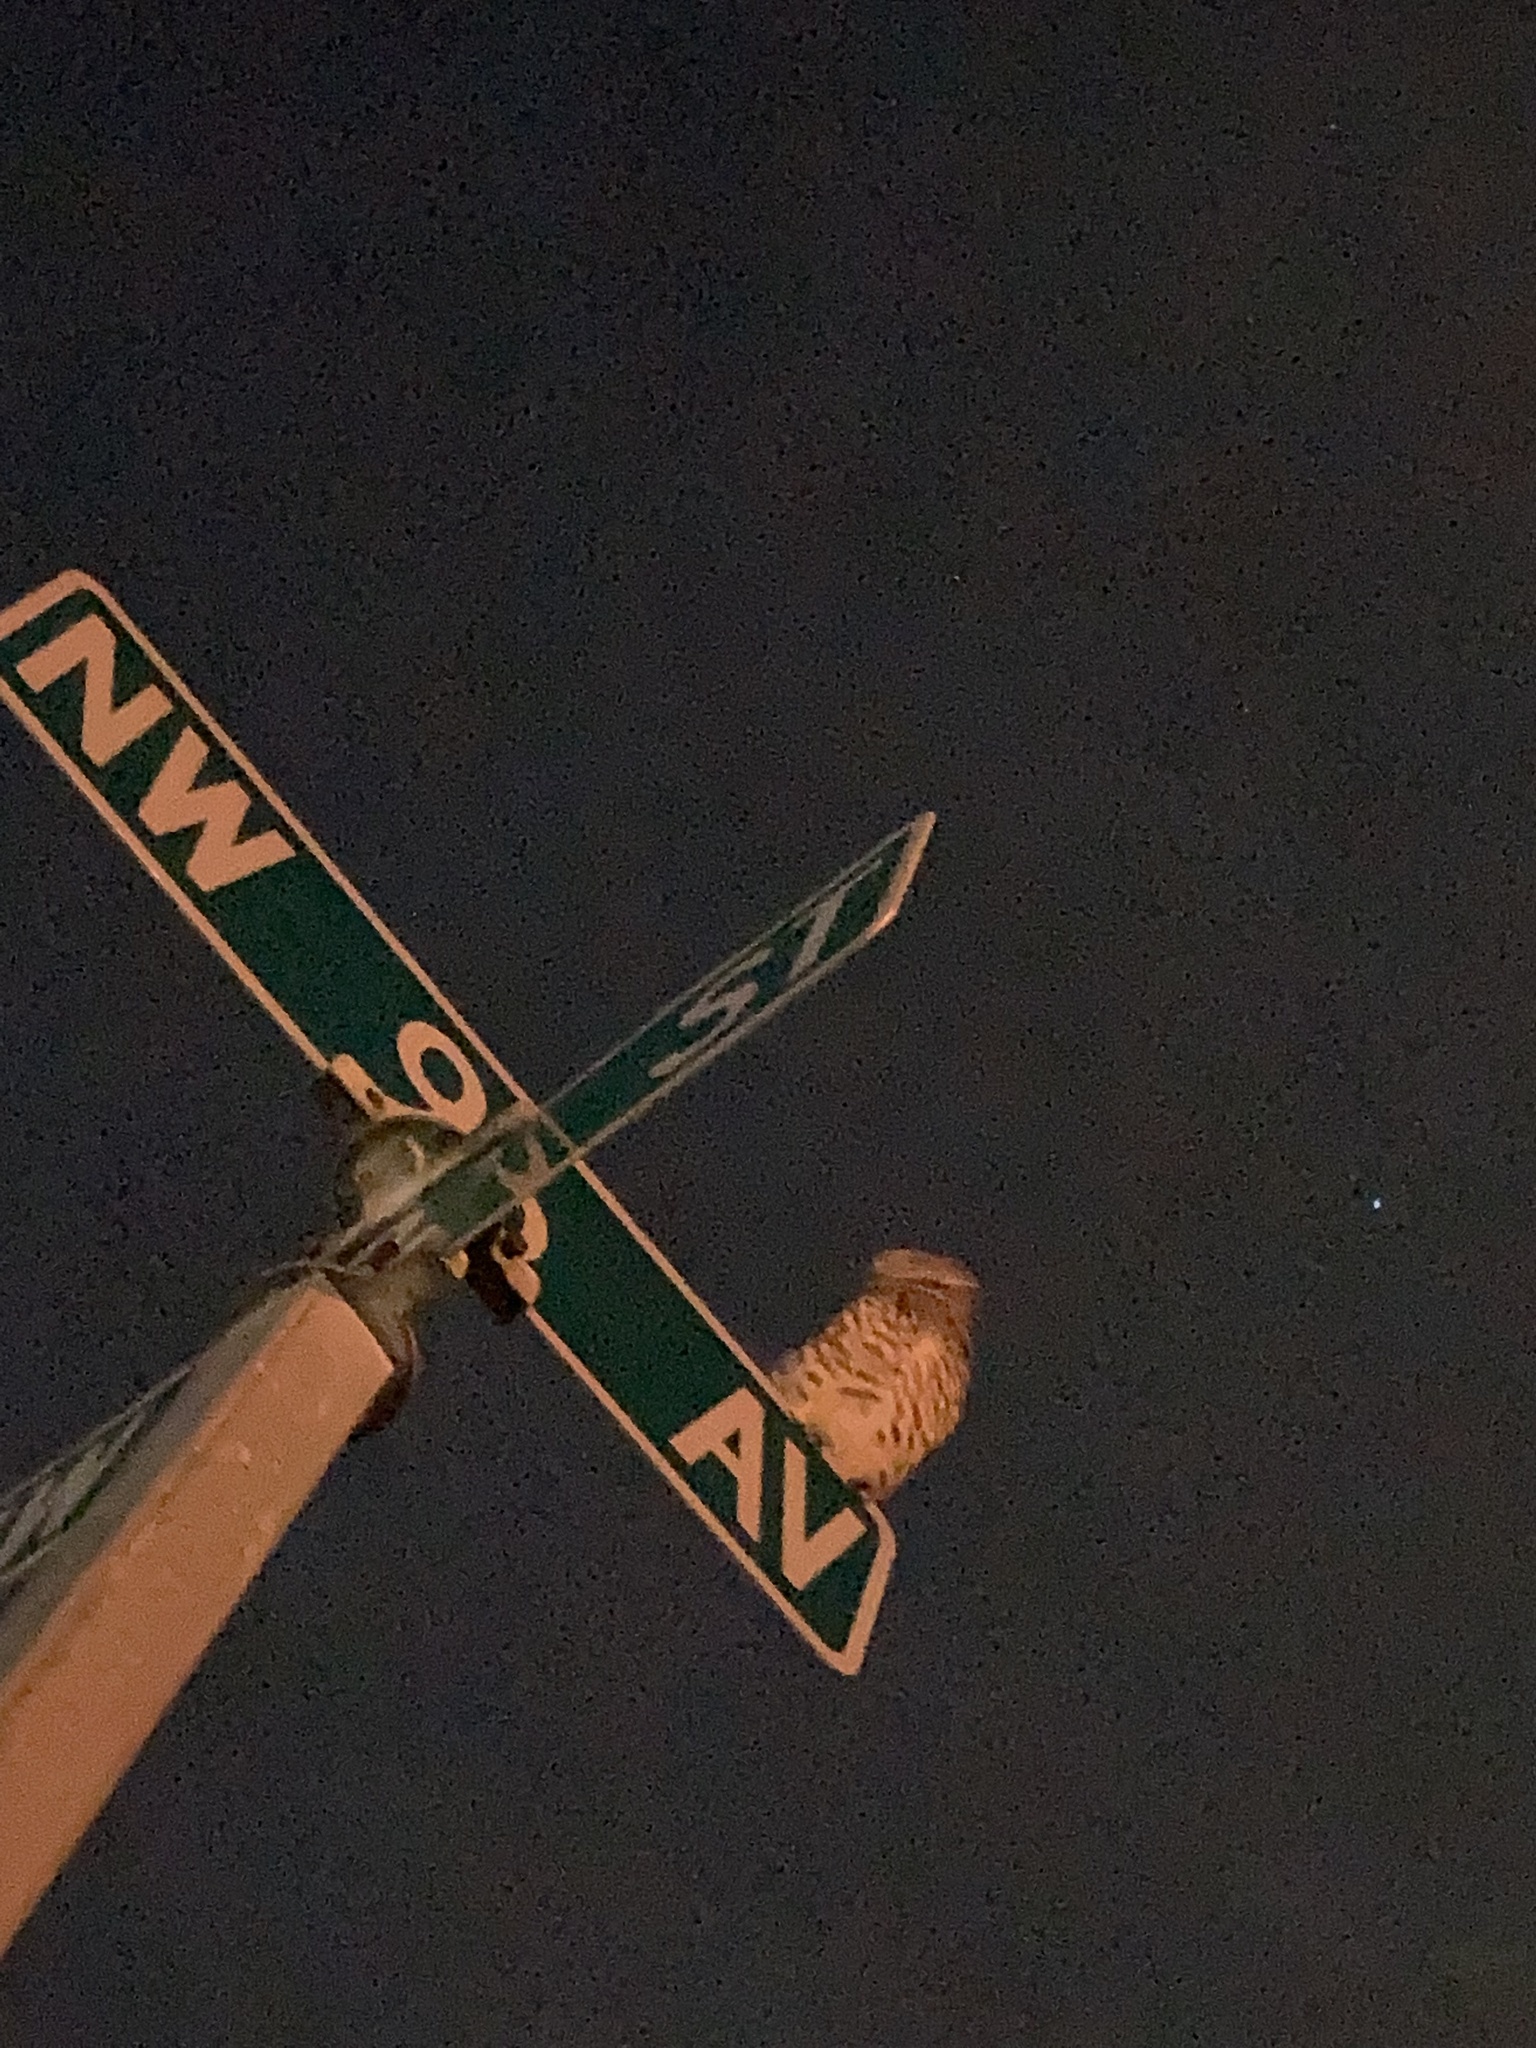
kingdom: Animalia
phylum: Chordata
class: Aves
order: Strigiformes
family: Strigidae
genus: Athene
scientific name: Athene cunicularia
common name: Burrowing owl
